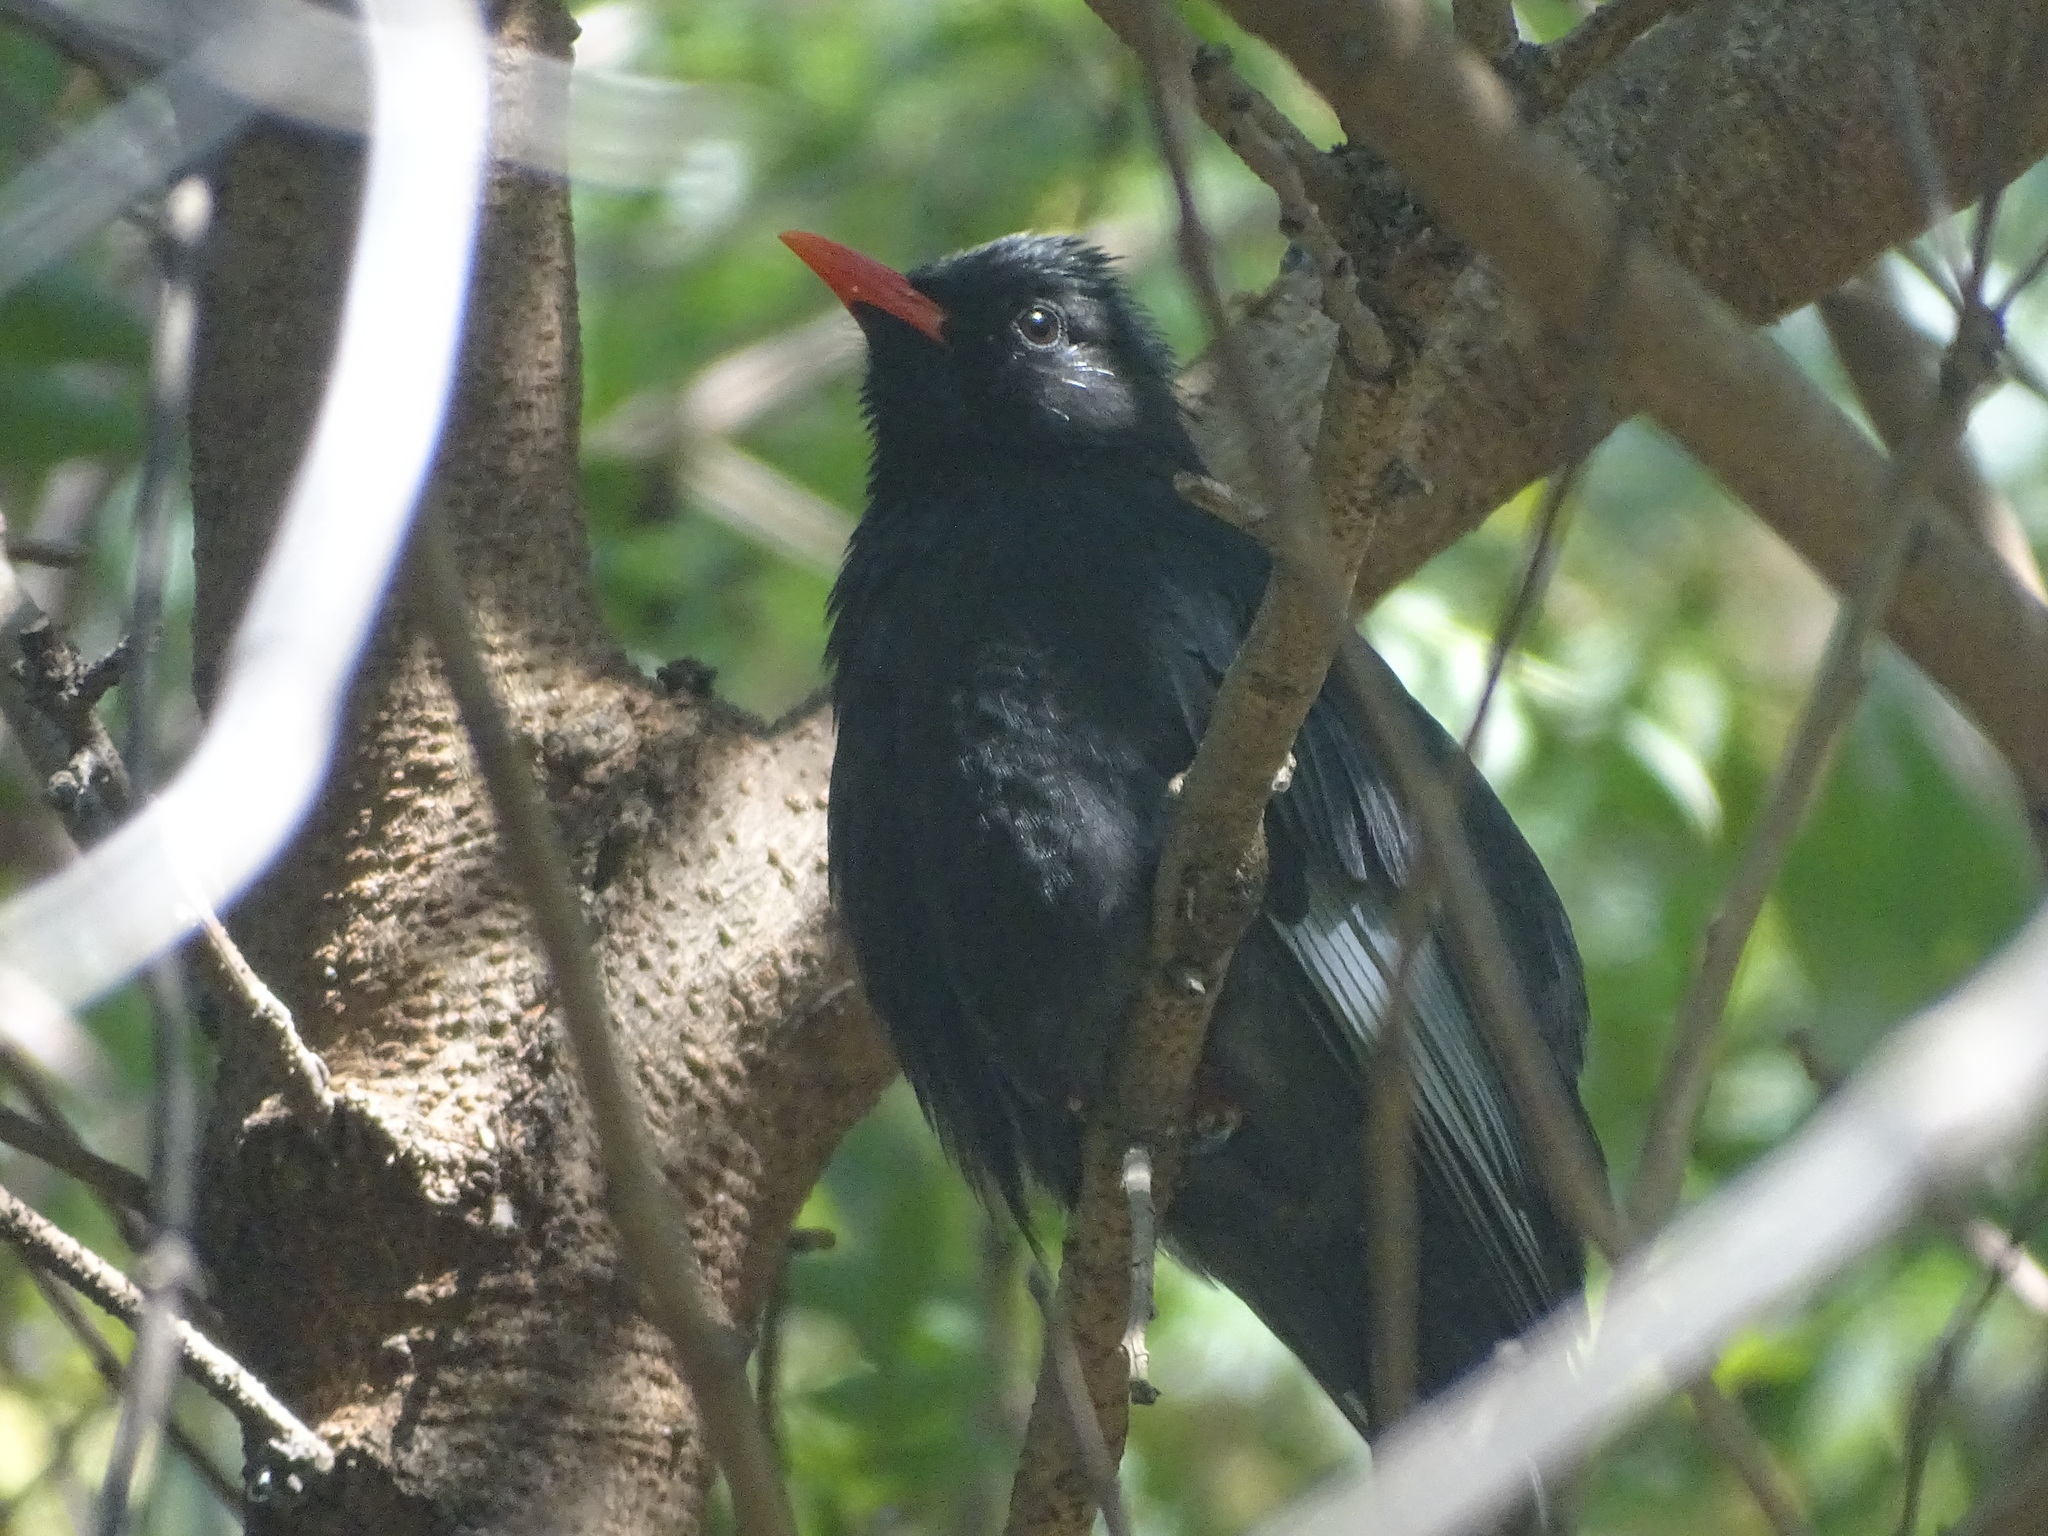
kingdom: Animalia
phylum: Chordata
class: Aves
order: Passeriformes
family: Pycnonotidae
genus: Hypsipetes
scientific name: Hypsipetes leucocephalus
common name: Black bulbul
